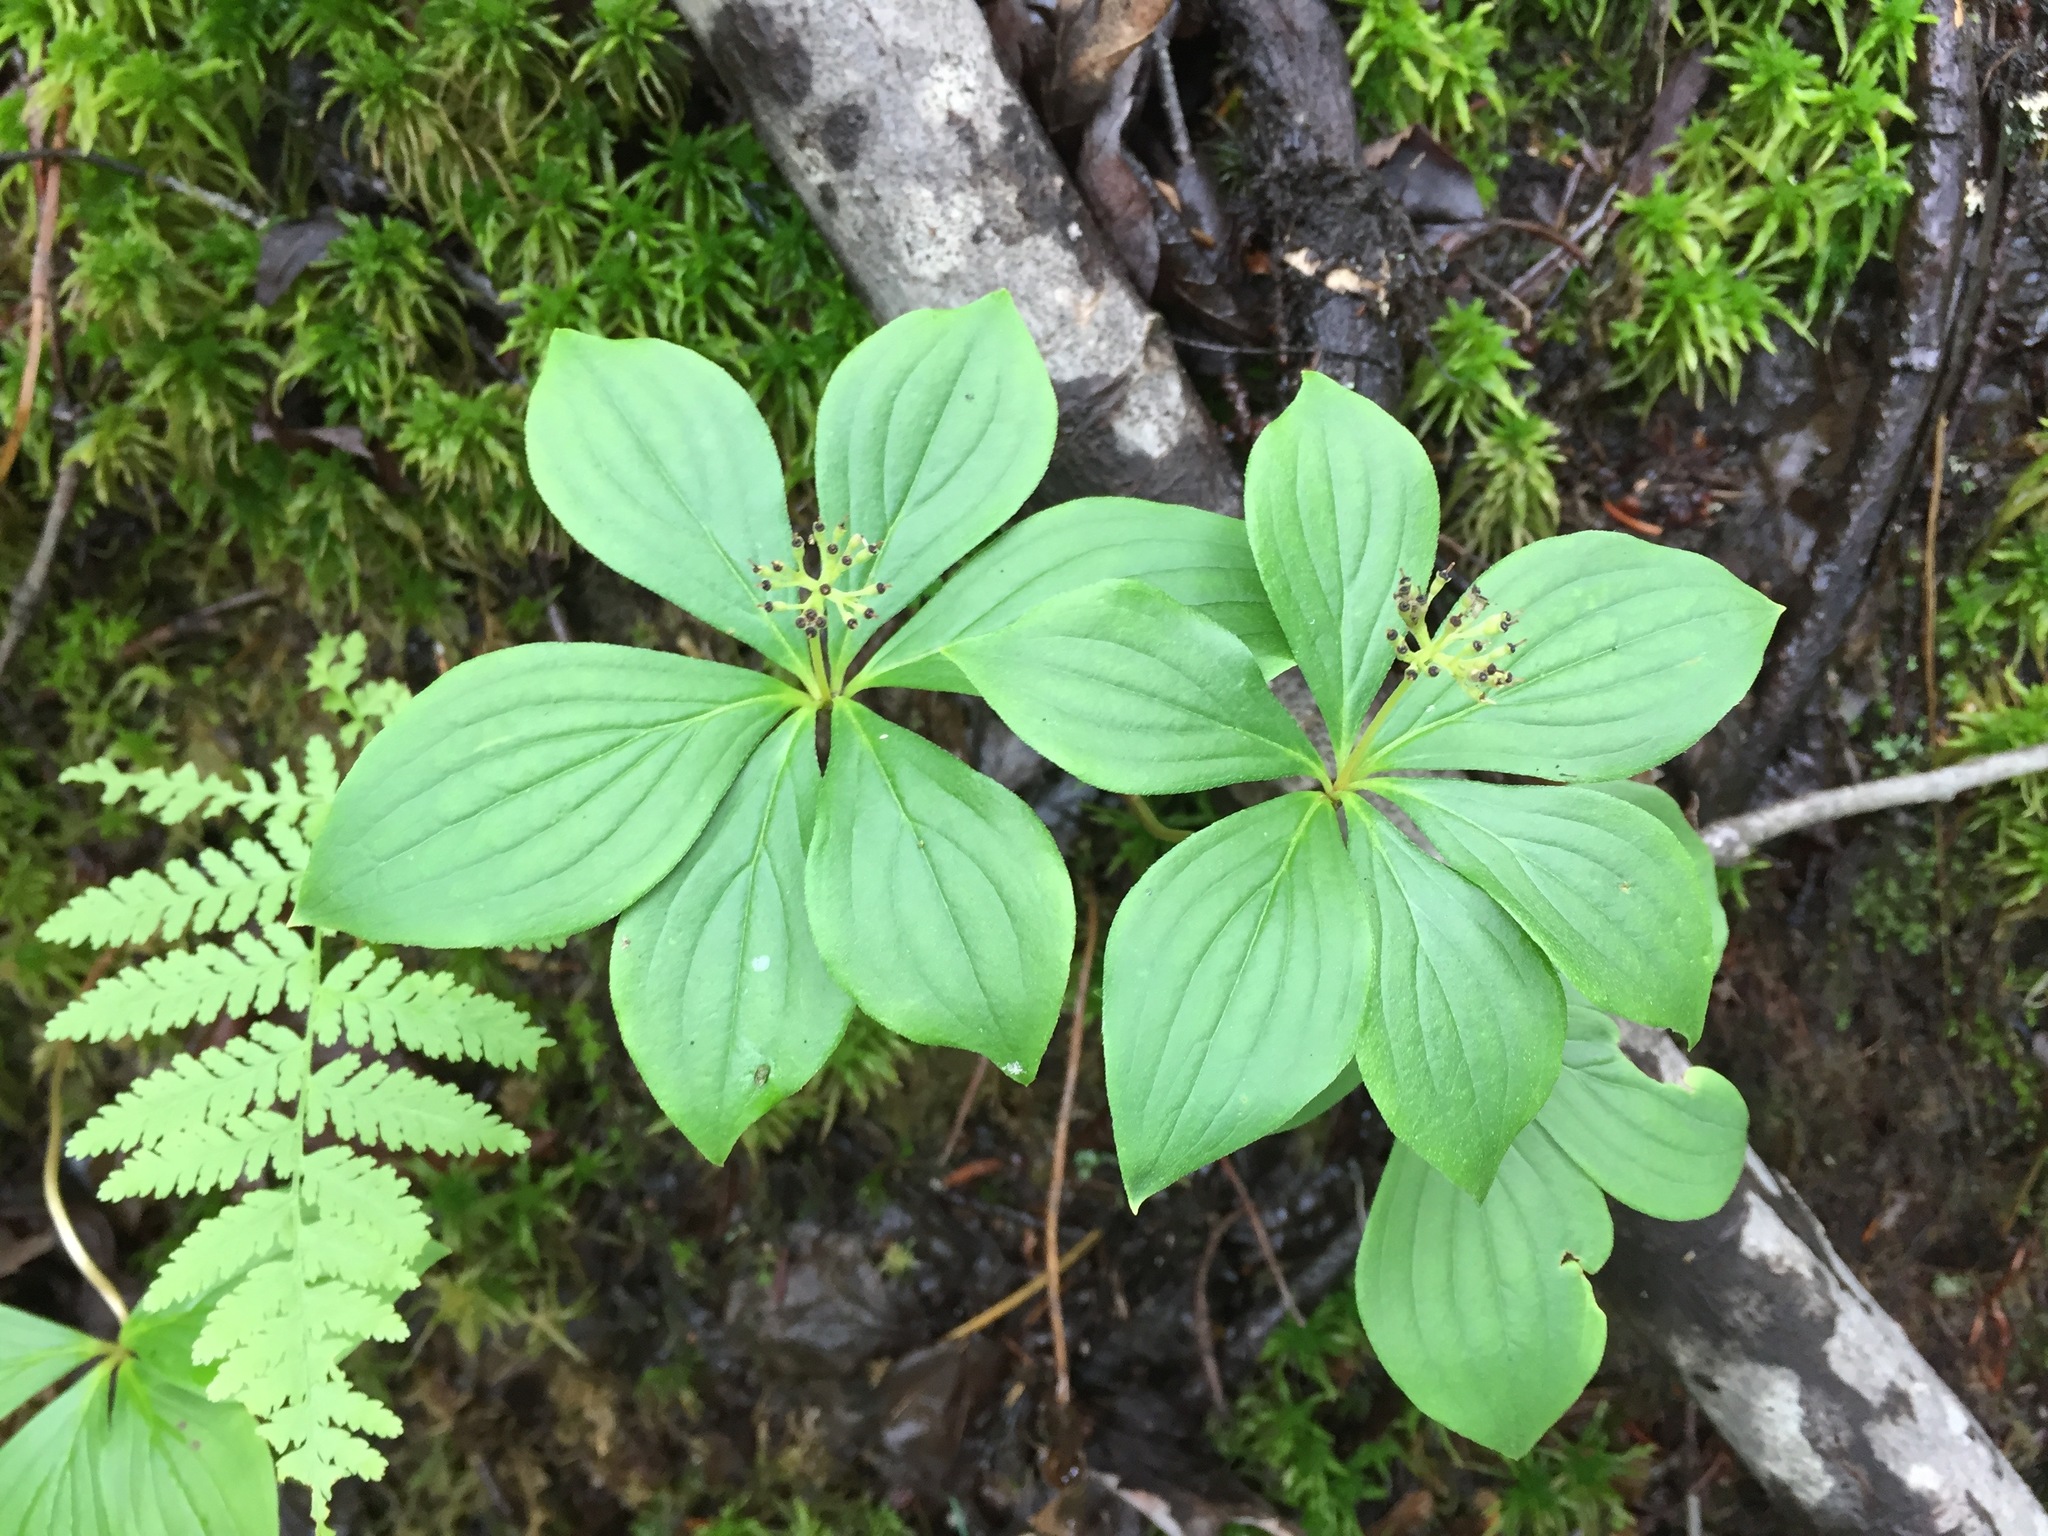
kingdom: Plantae
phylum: Tracheophyta
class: Magnoliopsida
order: Cornales
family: Cornaceae
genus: Cornus
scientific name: Cornus canadensis
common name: Creeping dogwood
